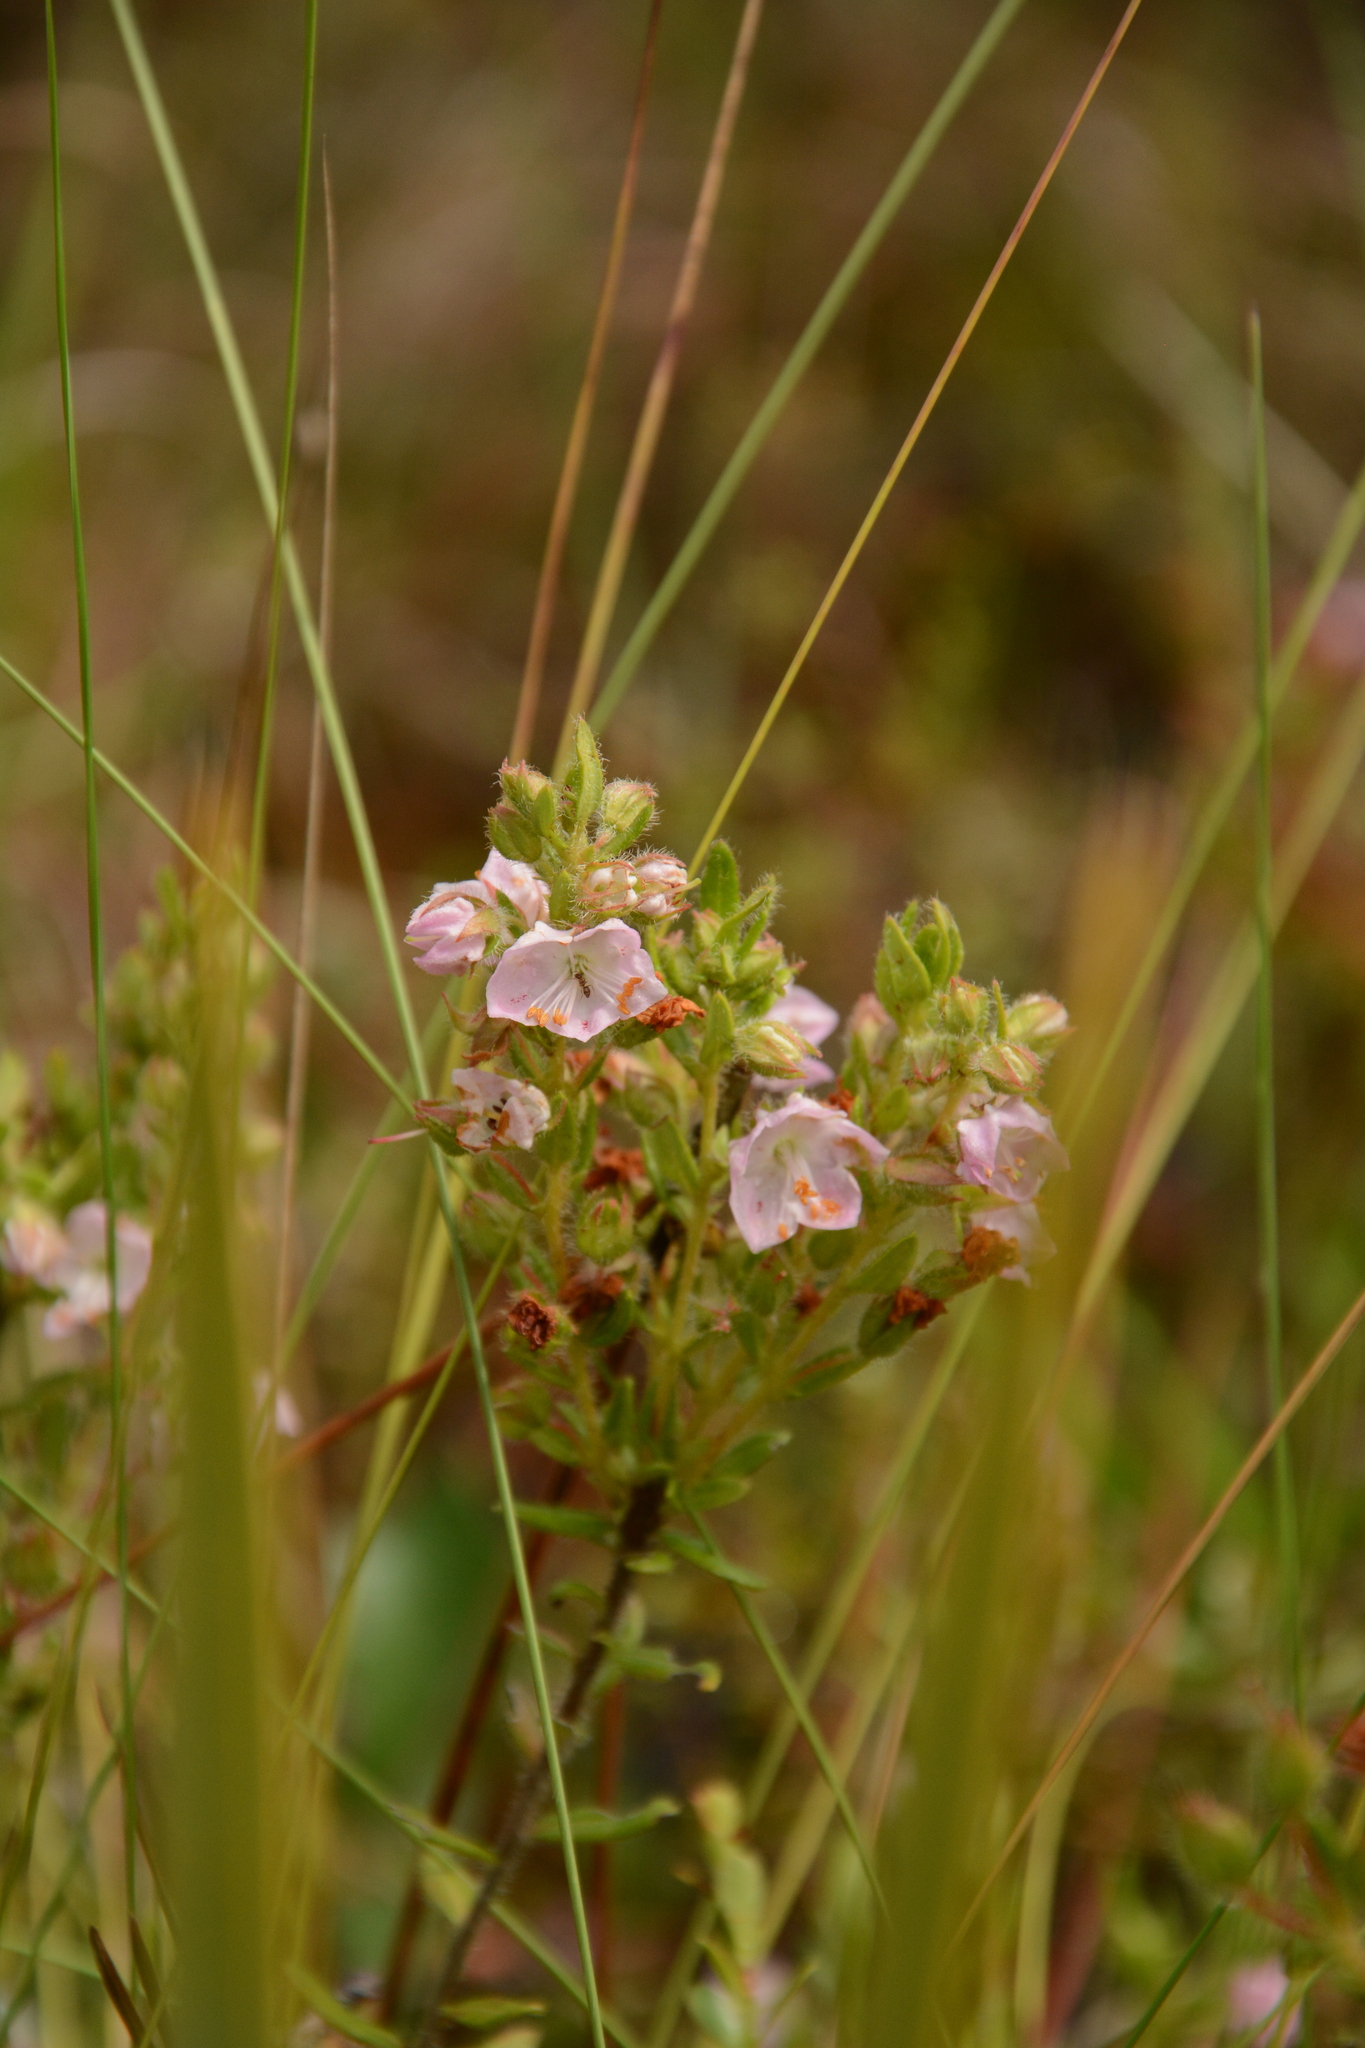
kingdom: Plantae
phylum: Tracheophyta
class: Magnoliopsida
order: Ericales
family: Ericaceae
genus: Kalmia
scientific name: Kalmia hirsuta
